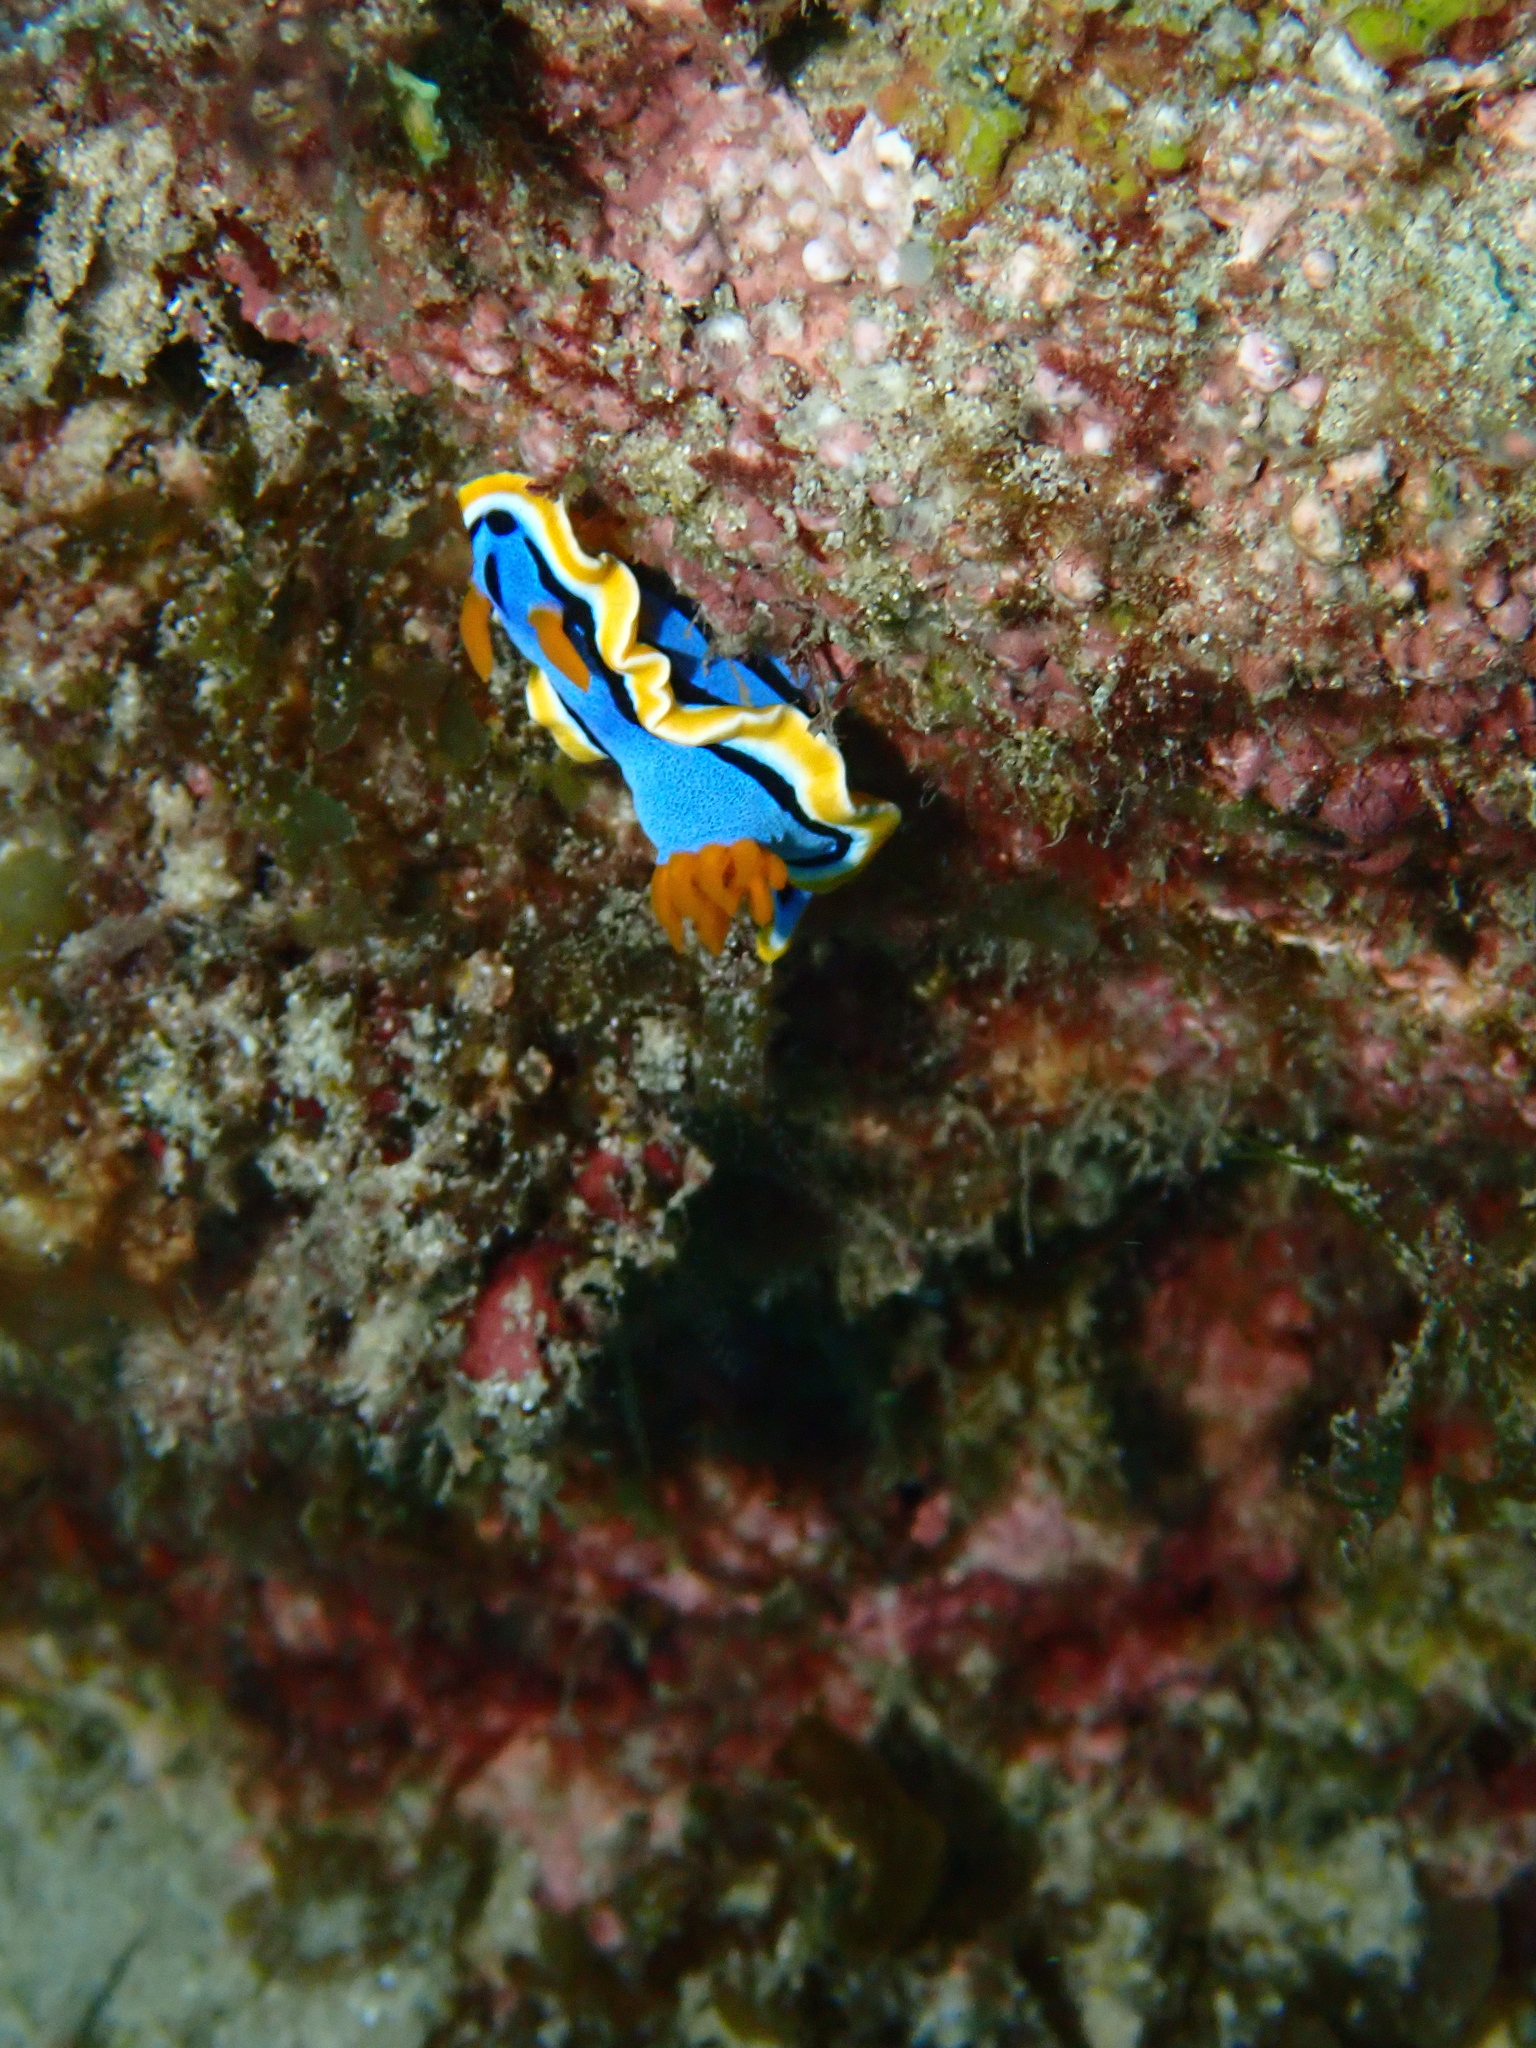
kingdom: Animalia
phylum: Mollusca
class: Gastropoda
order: Nudibranchia
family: Chromodorididae
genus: Chromodoris
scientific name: Chromodoris annae
